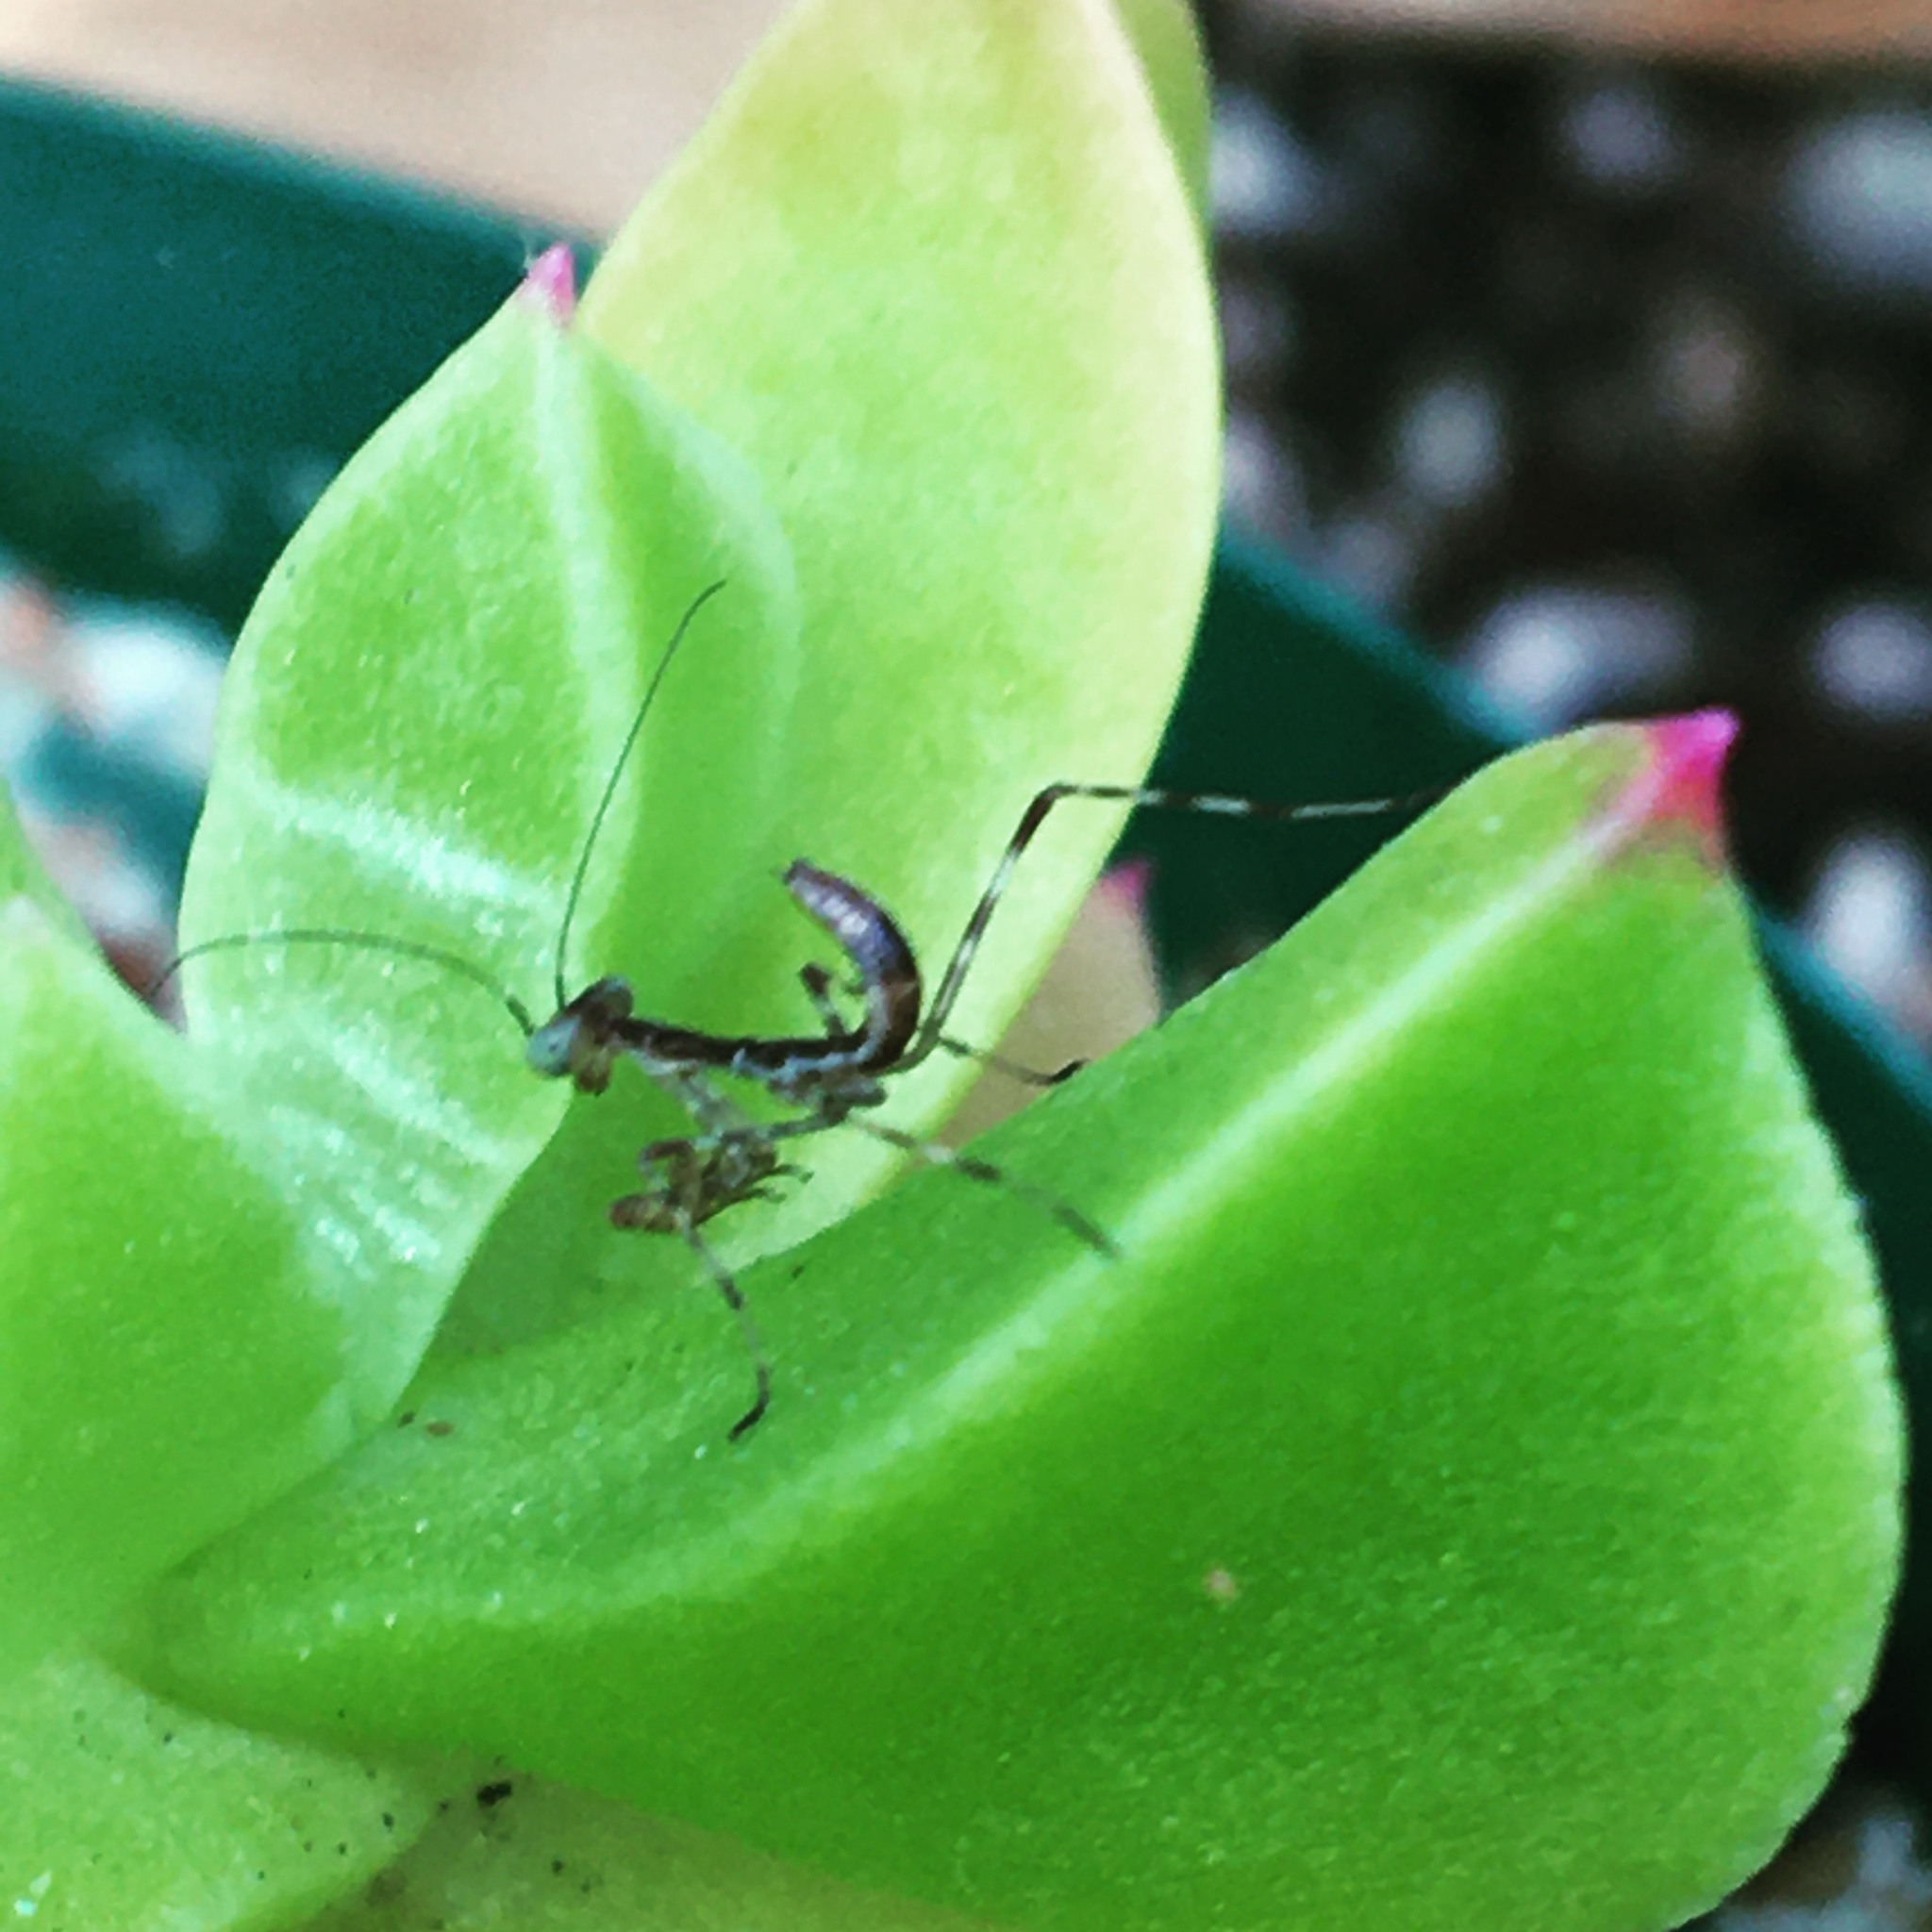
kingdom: Animalia
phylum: Arthropoda
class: Insecta
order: Mantodea
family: Miomantidae
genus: Miomantis
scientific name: Miomantis caffra
